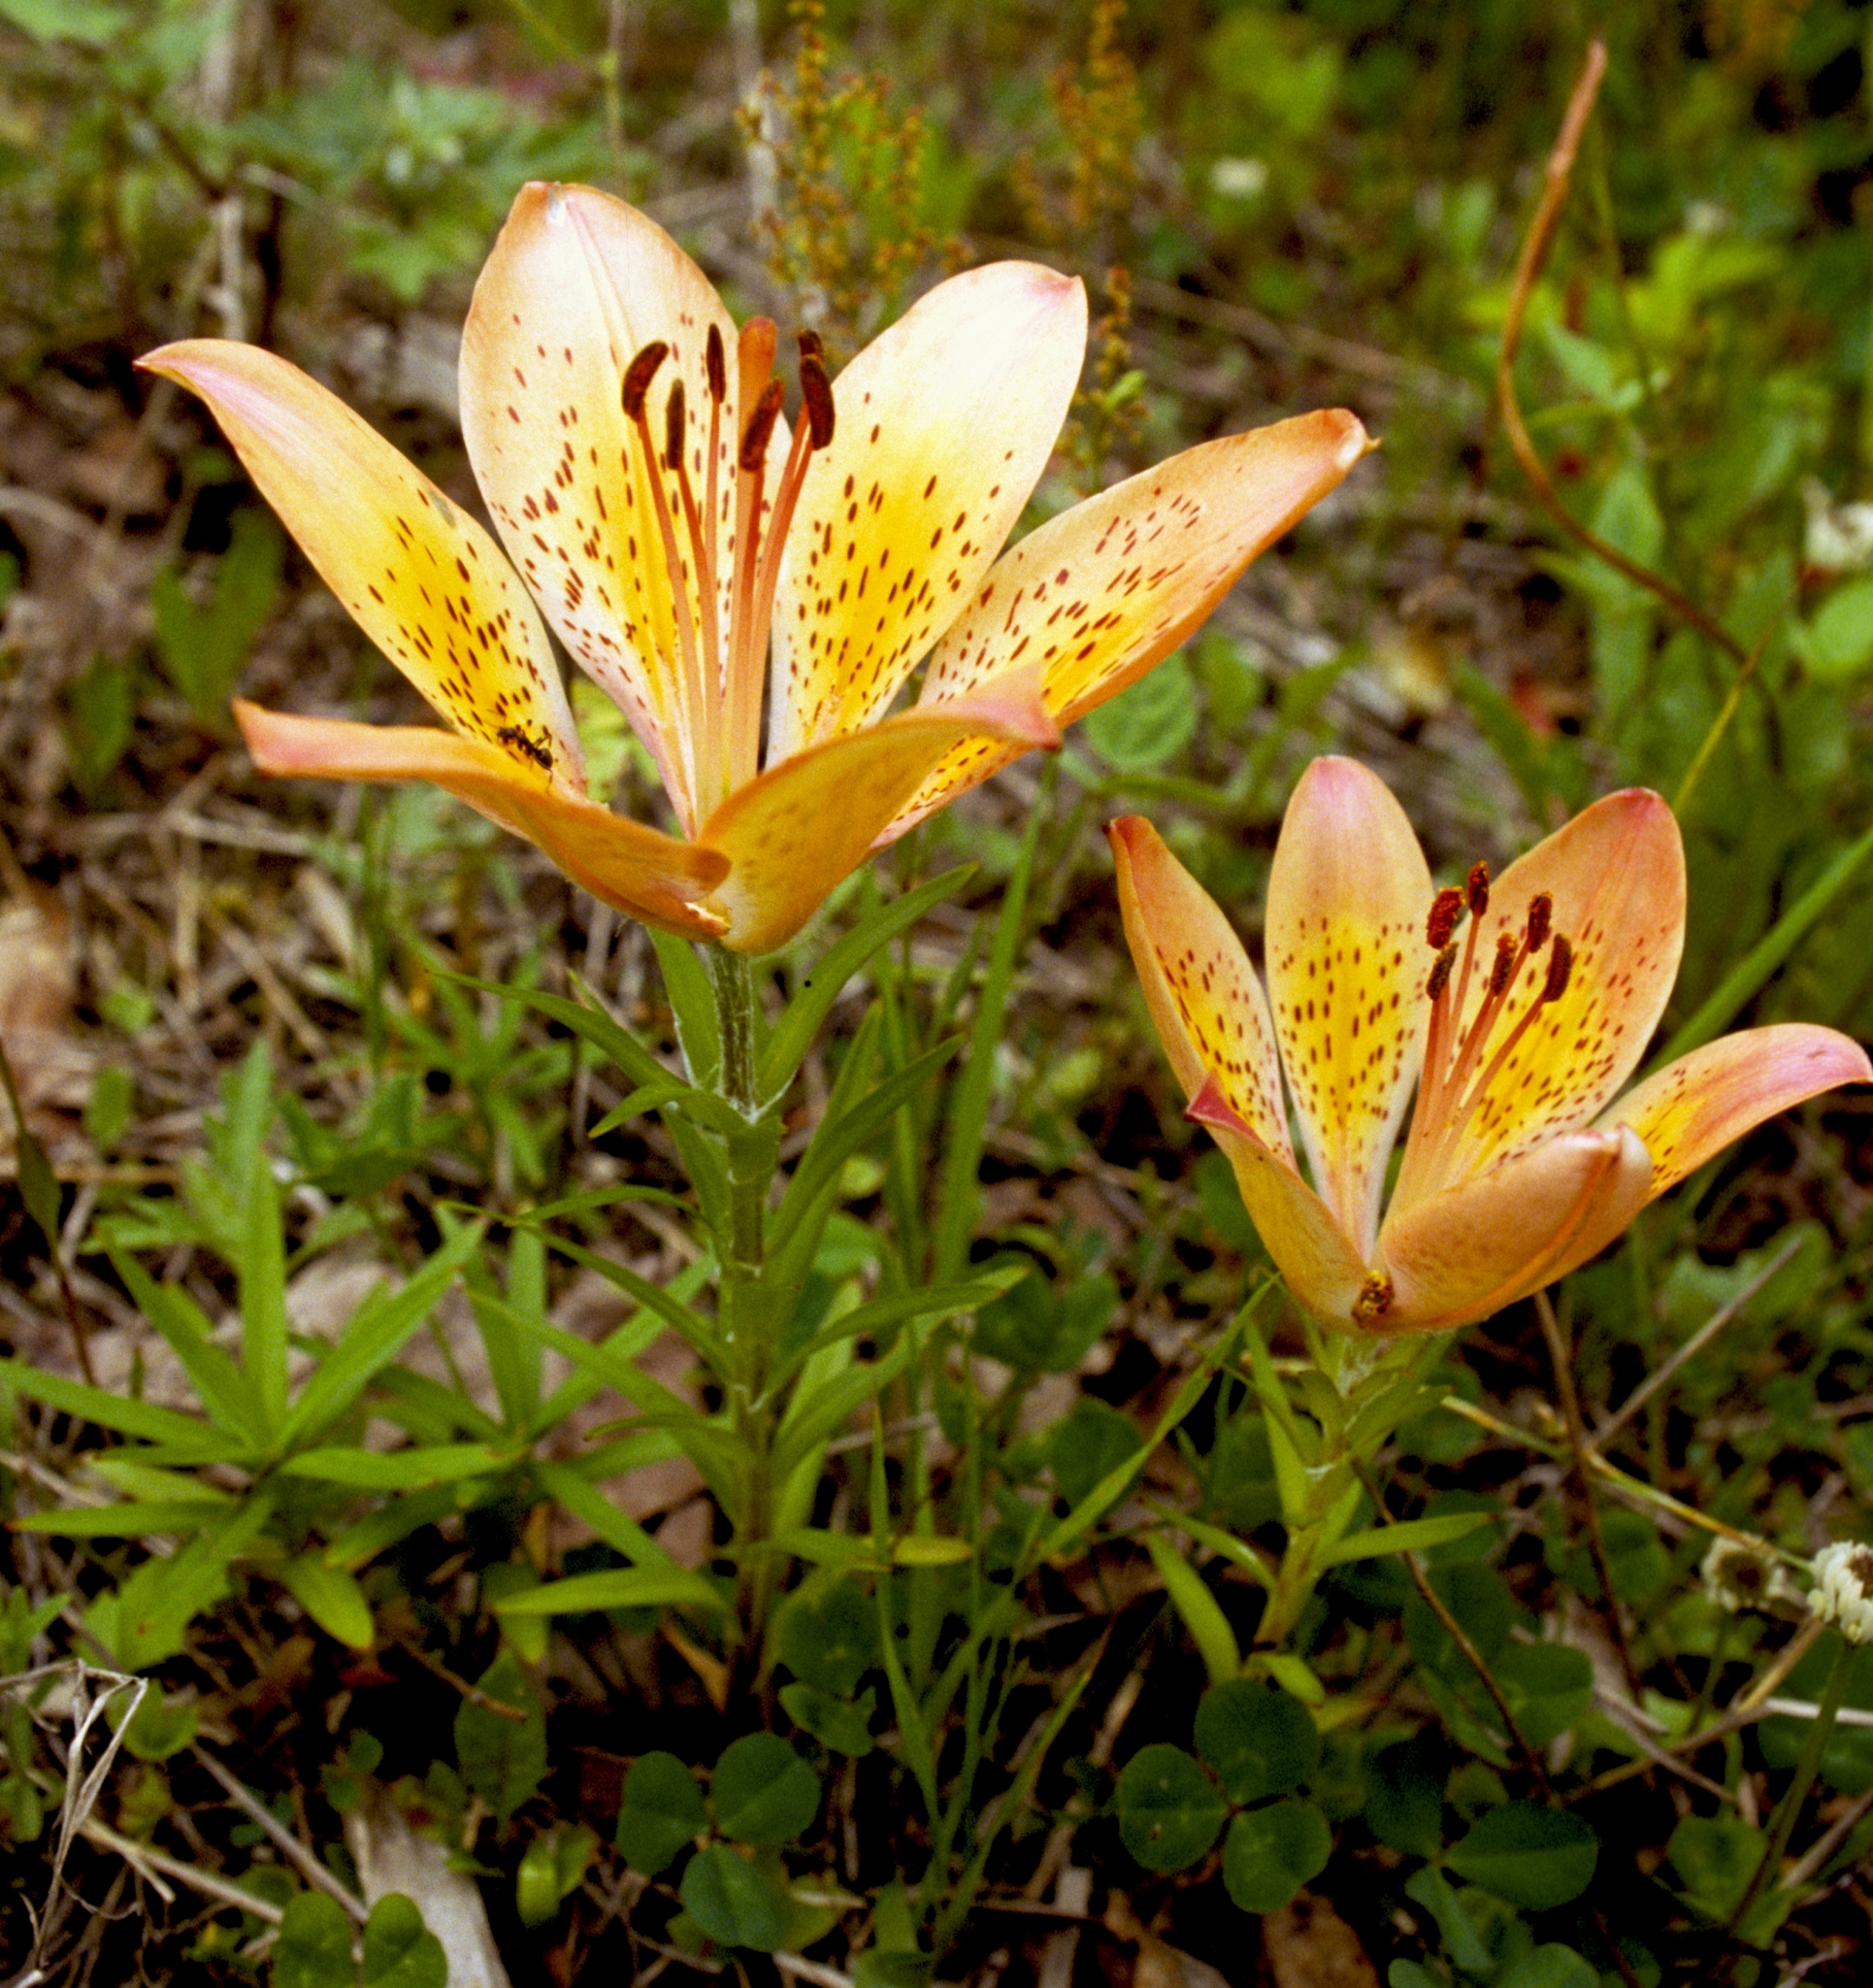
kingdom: Plantae
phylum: Tracheophyta
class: Liliopsida
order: Liliales
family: Liliaceae
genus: Lilium
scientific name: Lilium pensylvanicum
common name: Candlestick lily
